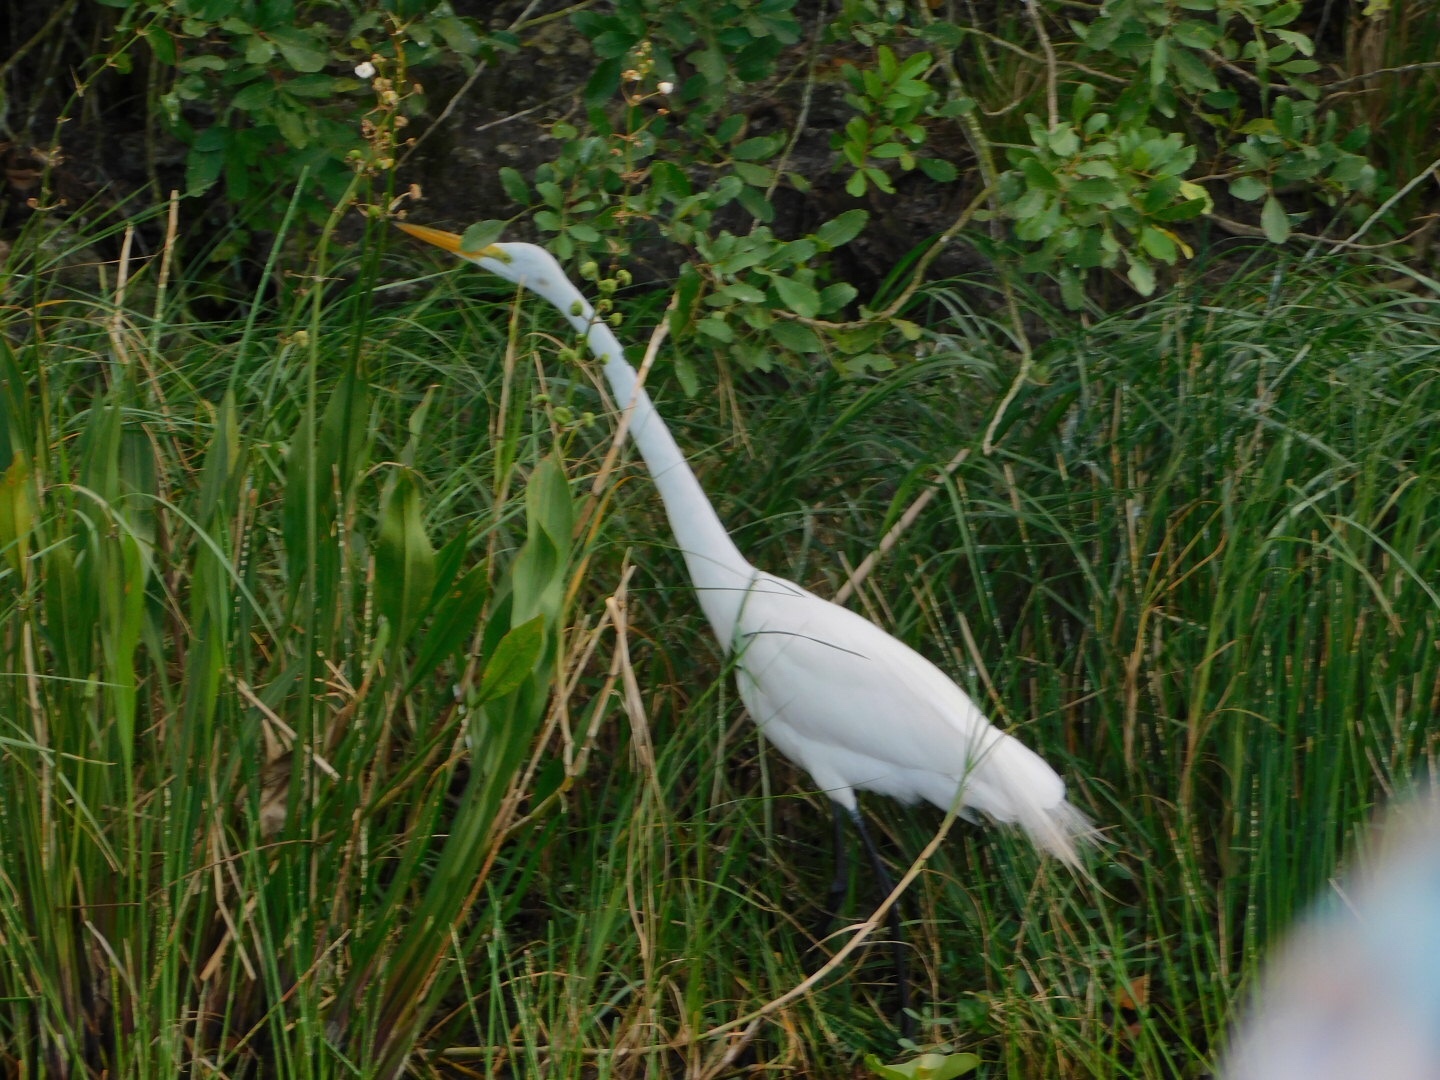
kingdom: Animalia
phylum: Chordata
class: Aves
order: Pelecaniformes
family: Ardeidae
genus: Ardea
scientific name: Ardea alba
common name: Great egret
